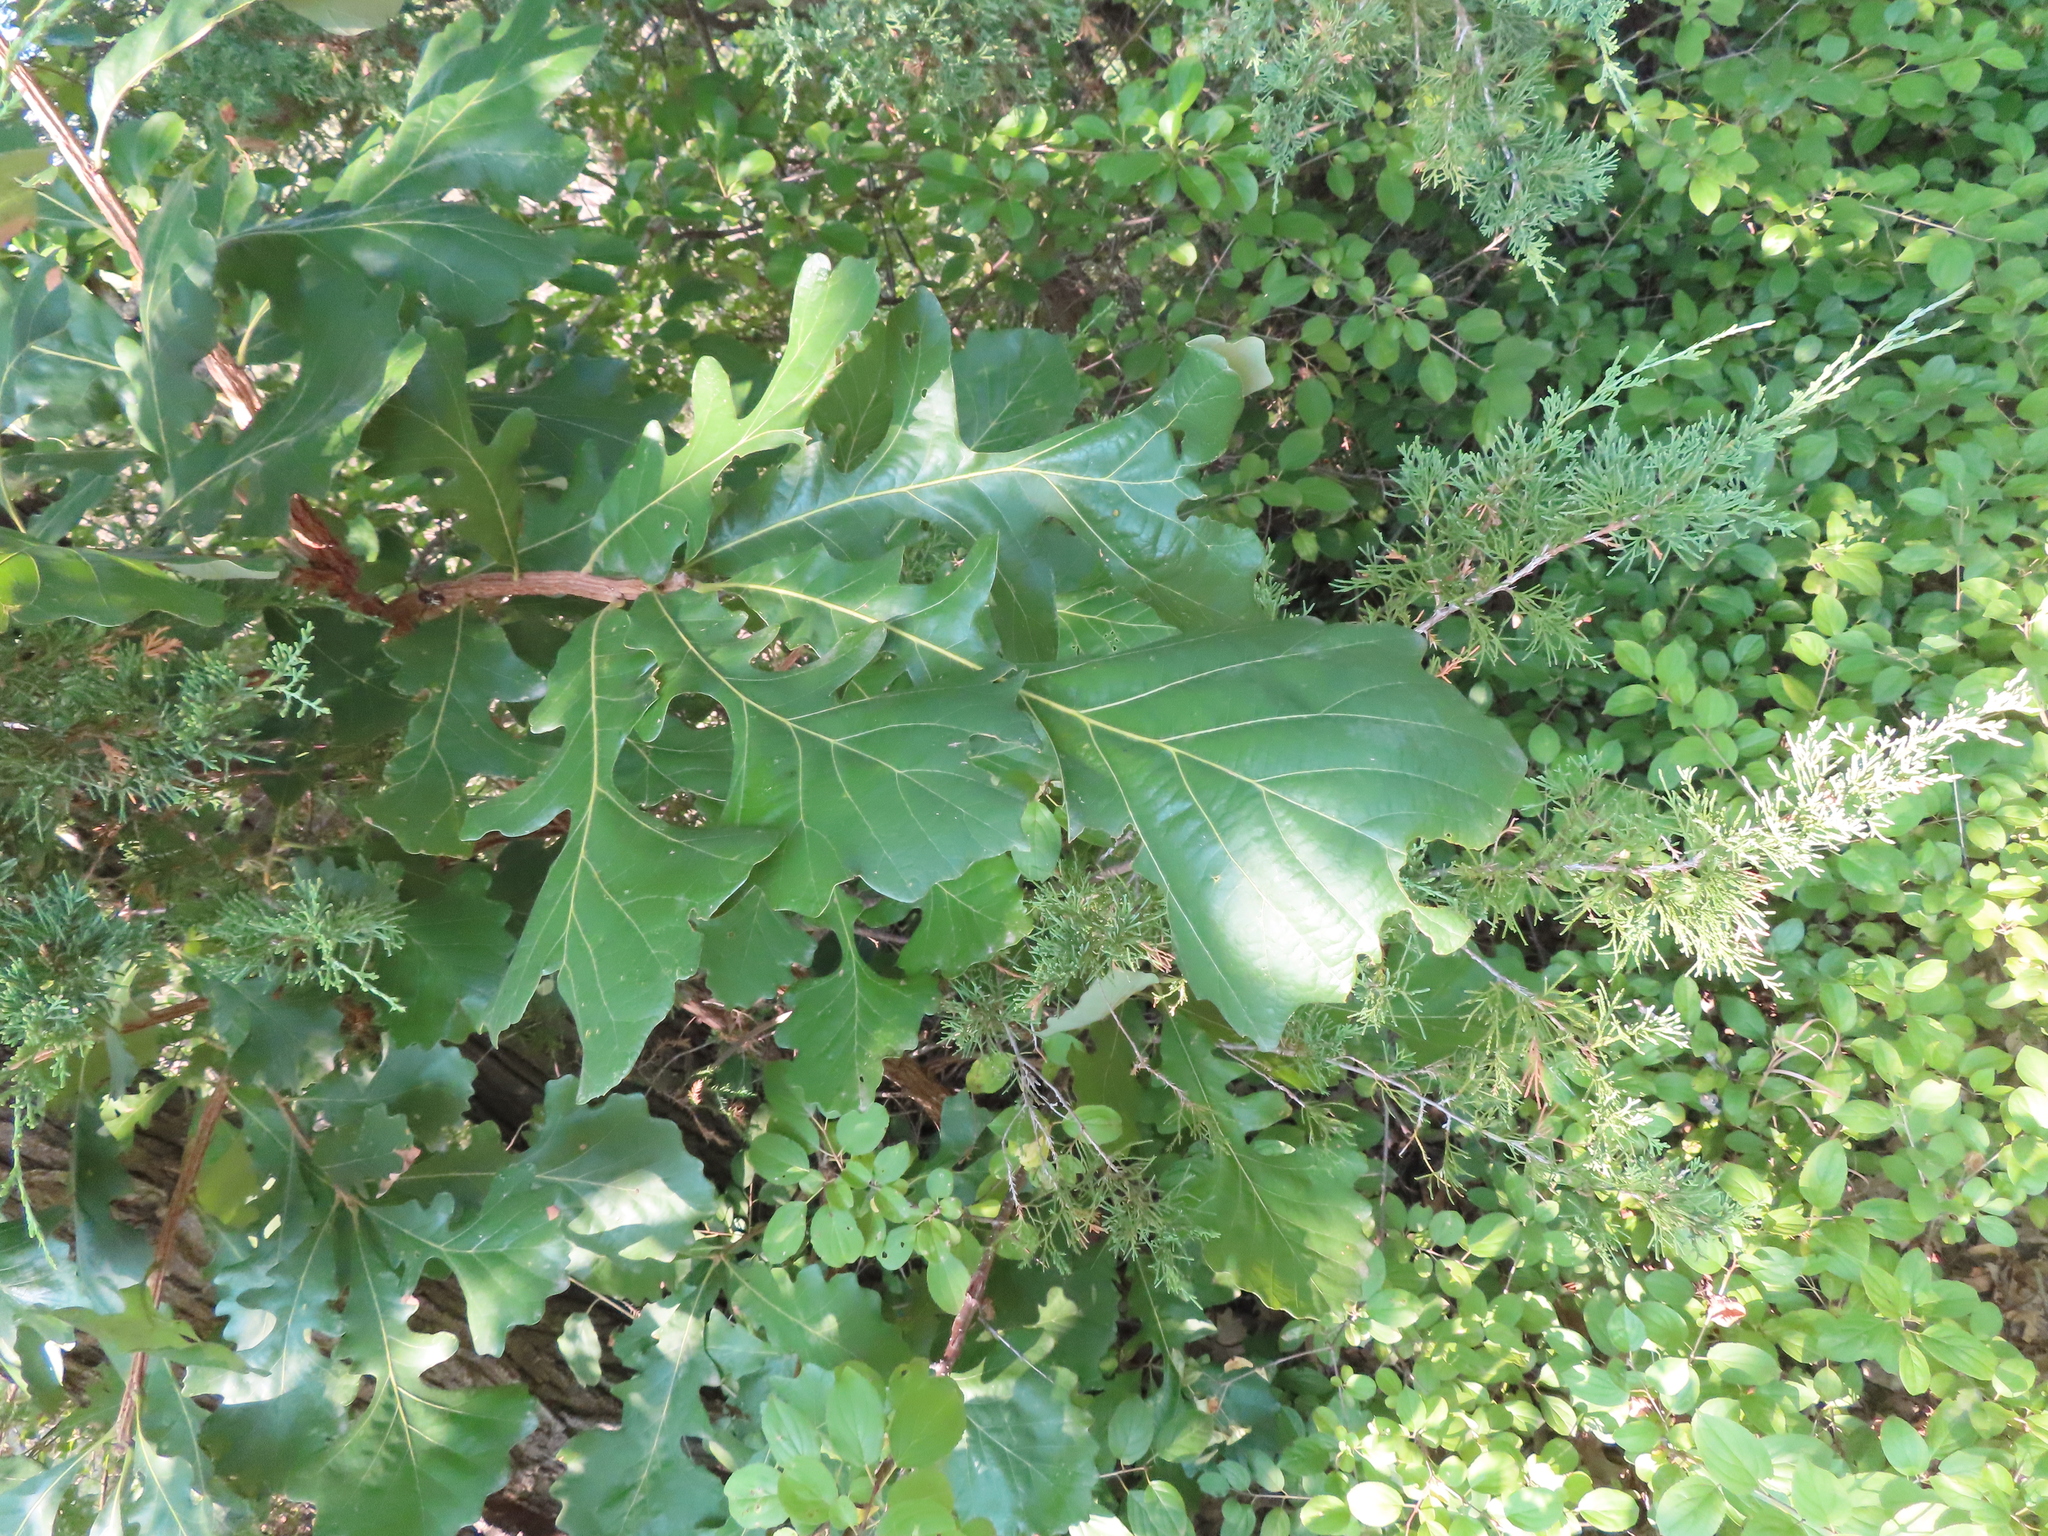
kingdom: Plantae
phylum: Tracheophyta
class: Magnoliopsida
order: Fagales
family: Fagaceae
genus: Quercus
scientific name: Quercus macrocarpa
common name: Bur oak
